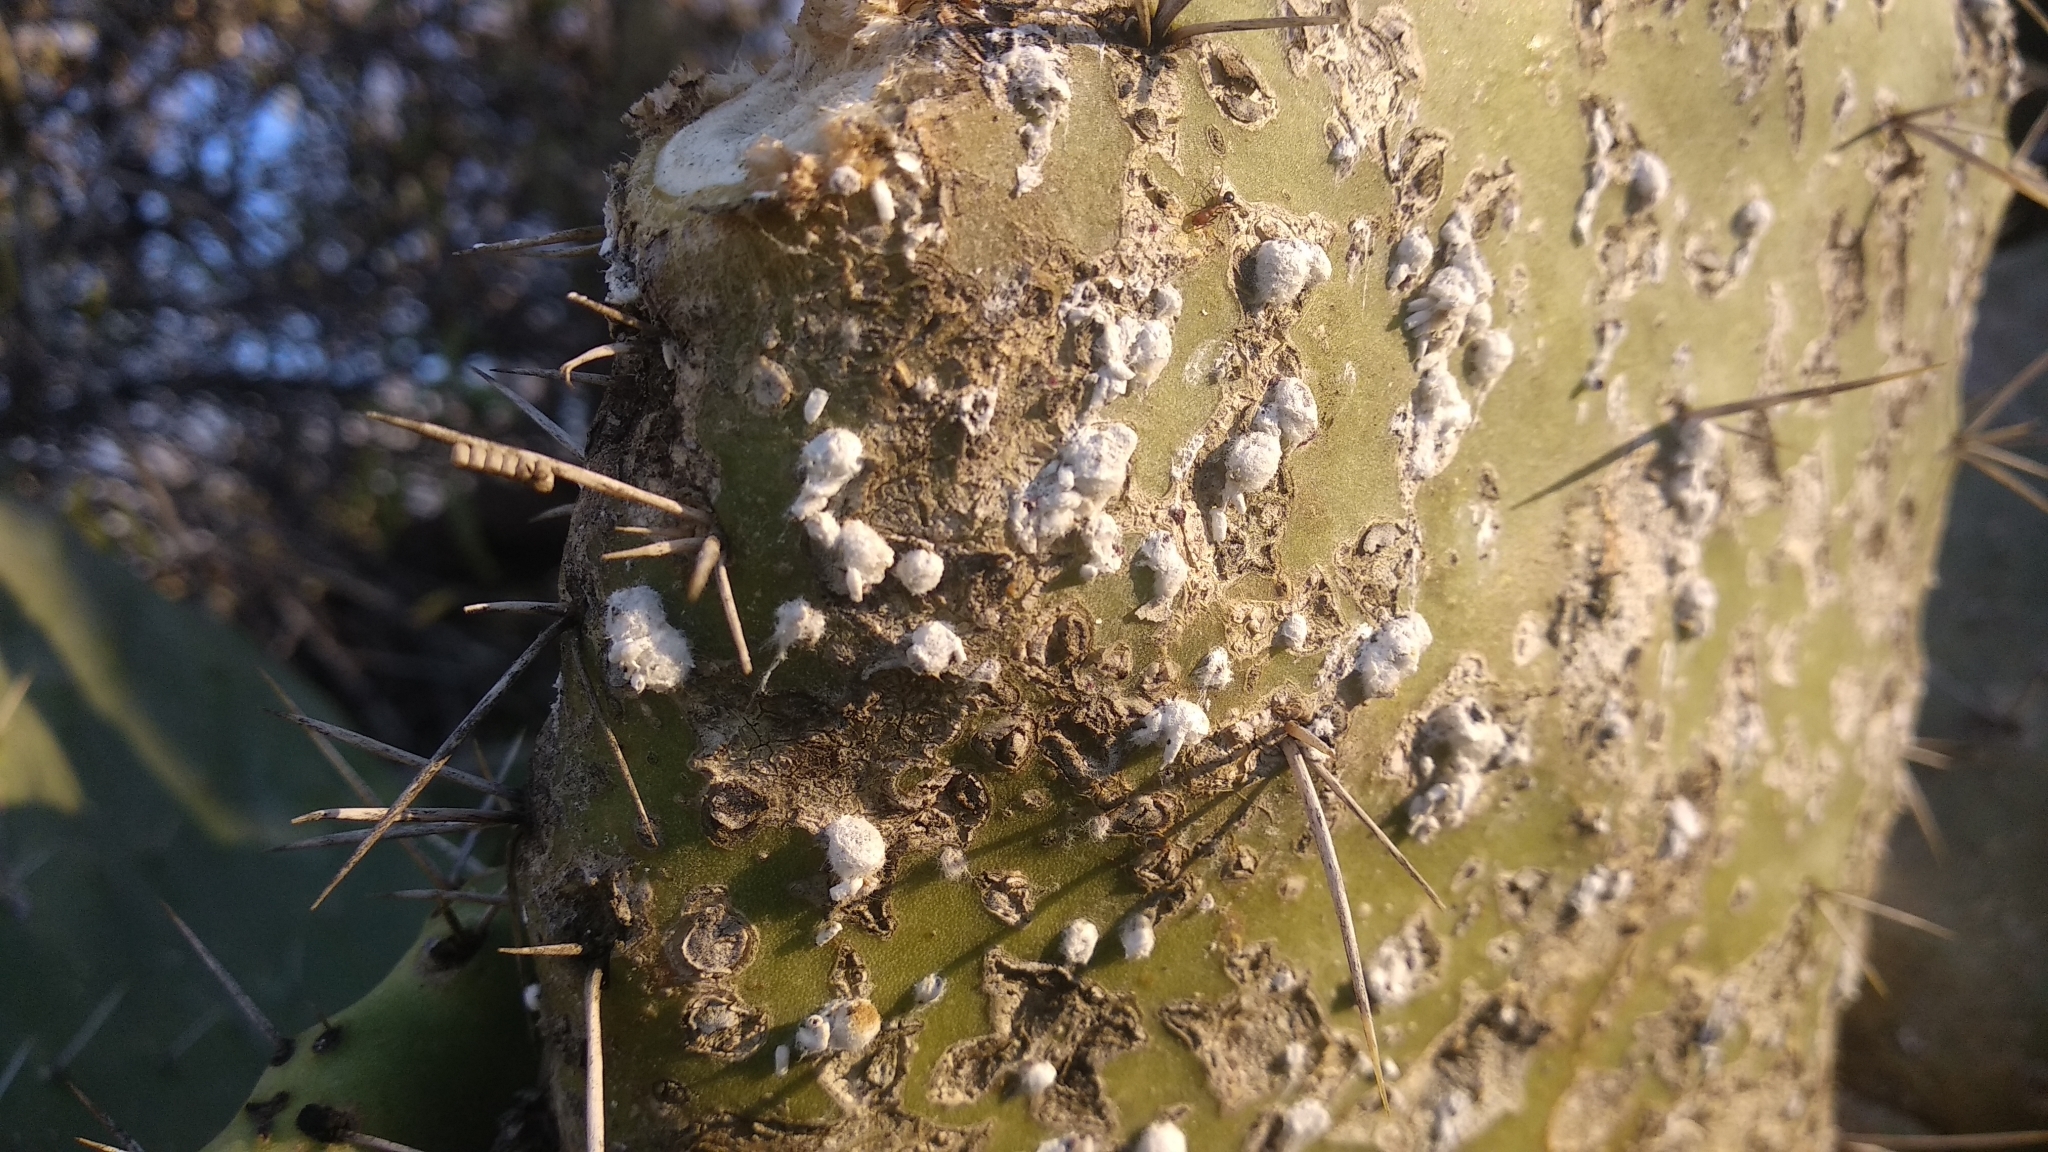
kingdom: Animalia
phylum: Arthropoda
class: Insecta
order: Hemiptera
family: Dactylopiidae
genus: Dactylopius
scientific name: Dactylopius opuntiae
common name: Opuntia cochineal scale
